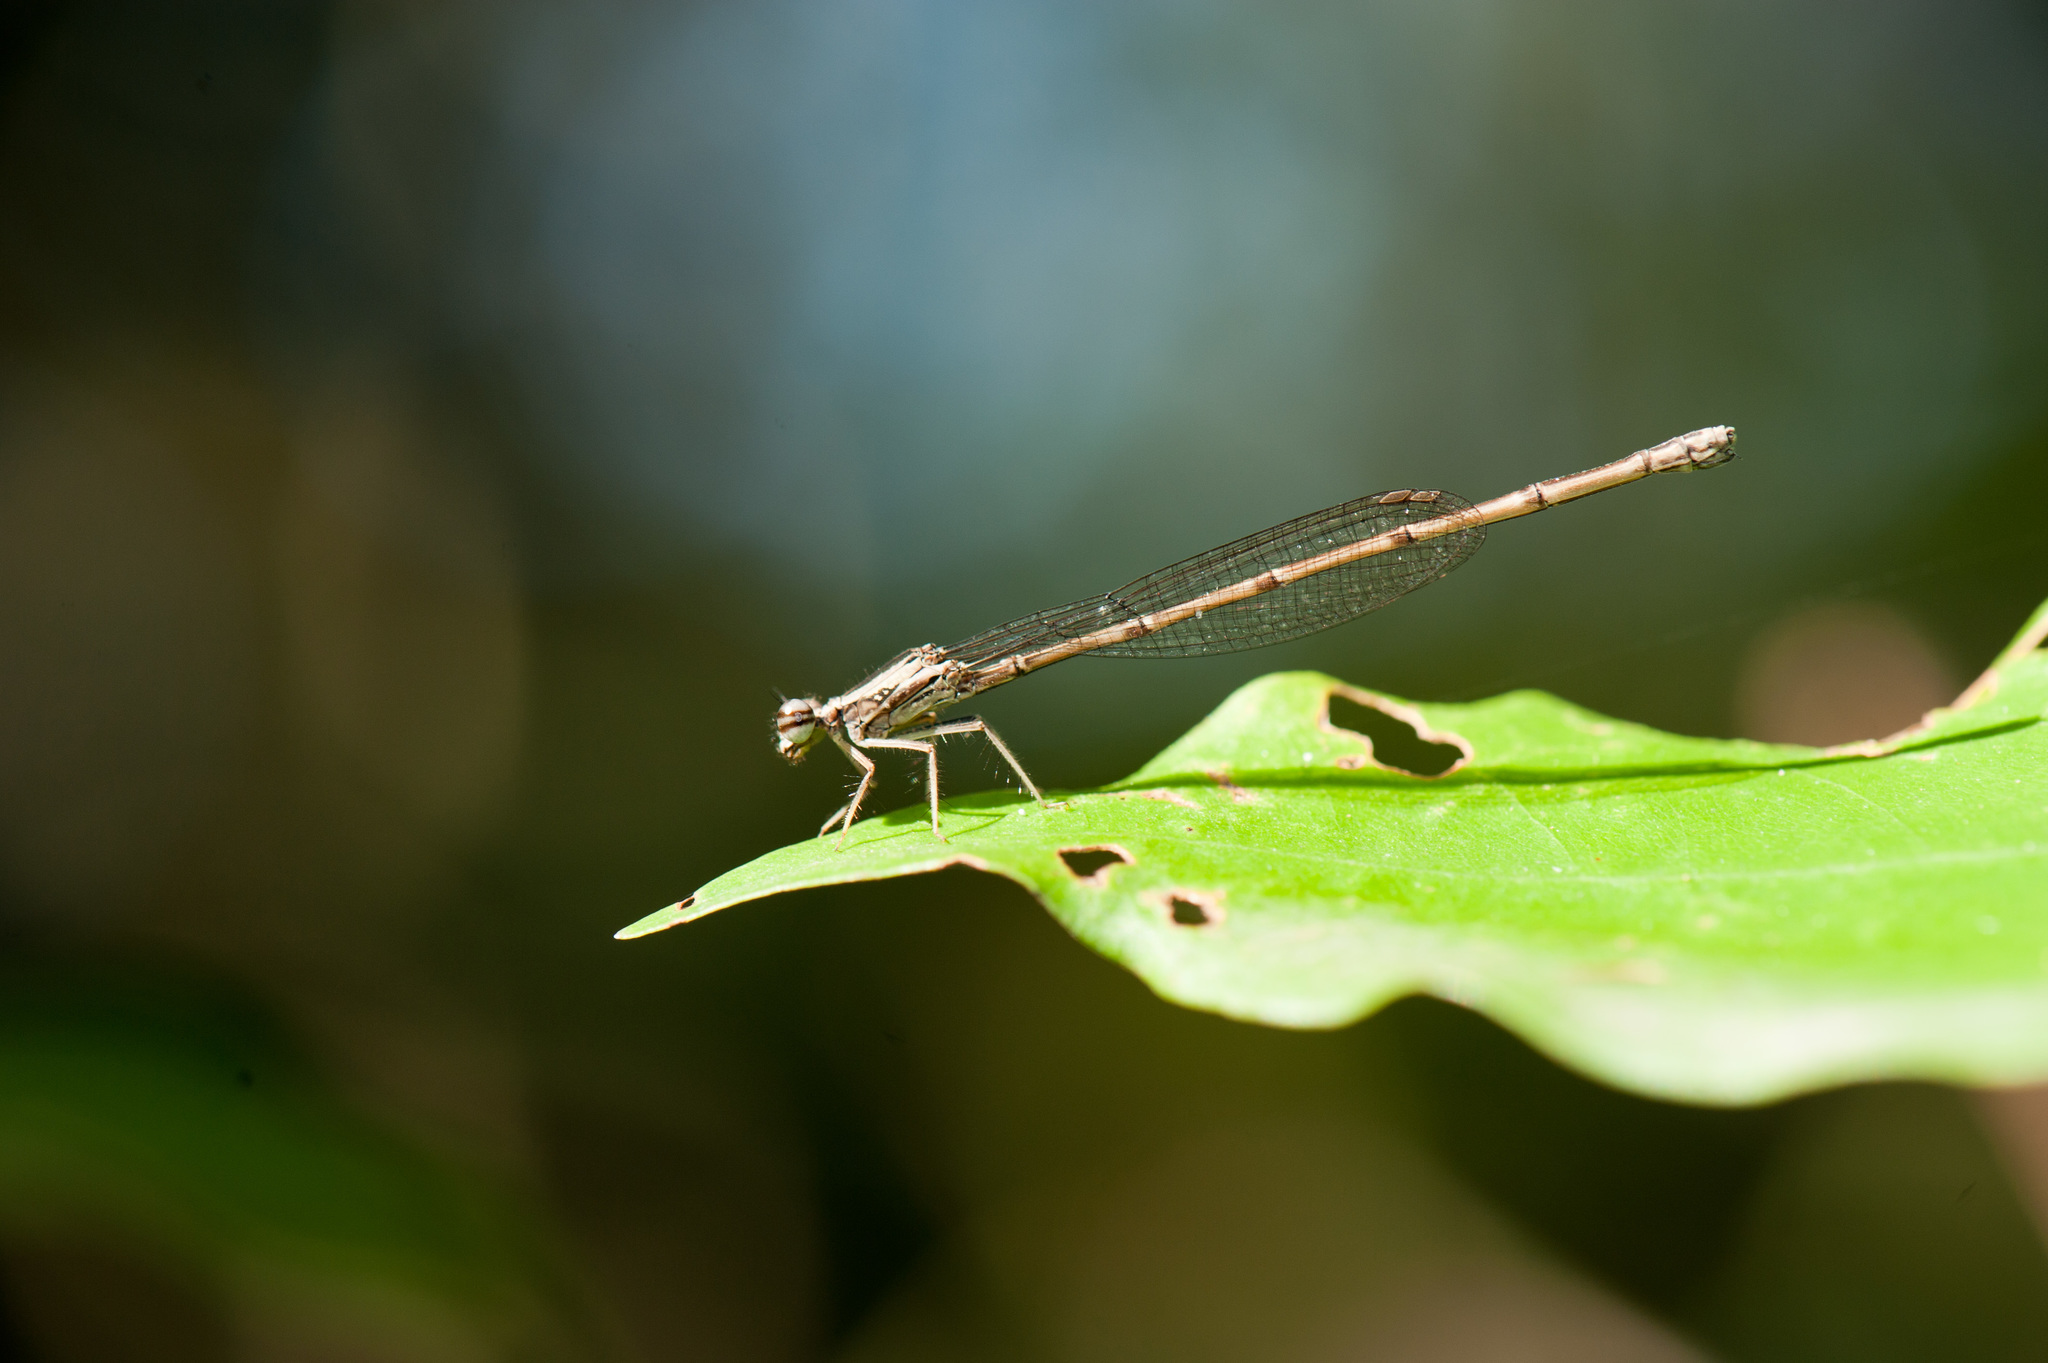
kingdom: Animalia
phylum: Arthropoda
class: Insecta
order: Odonata
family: Platycnemididae
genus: Copera
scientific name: Copera marginipes
